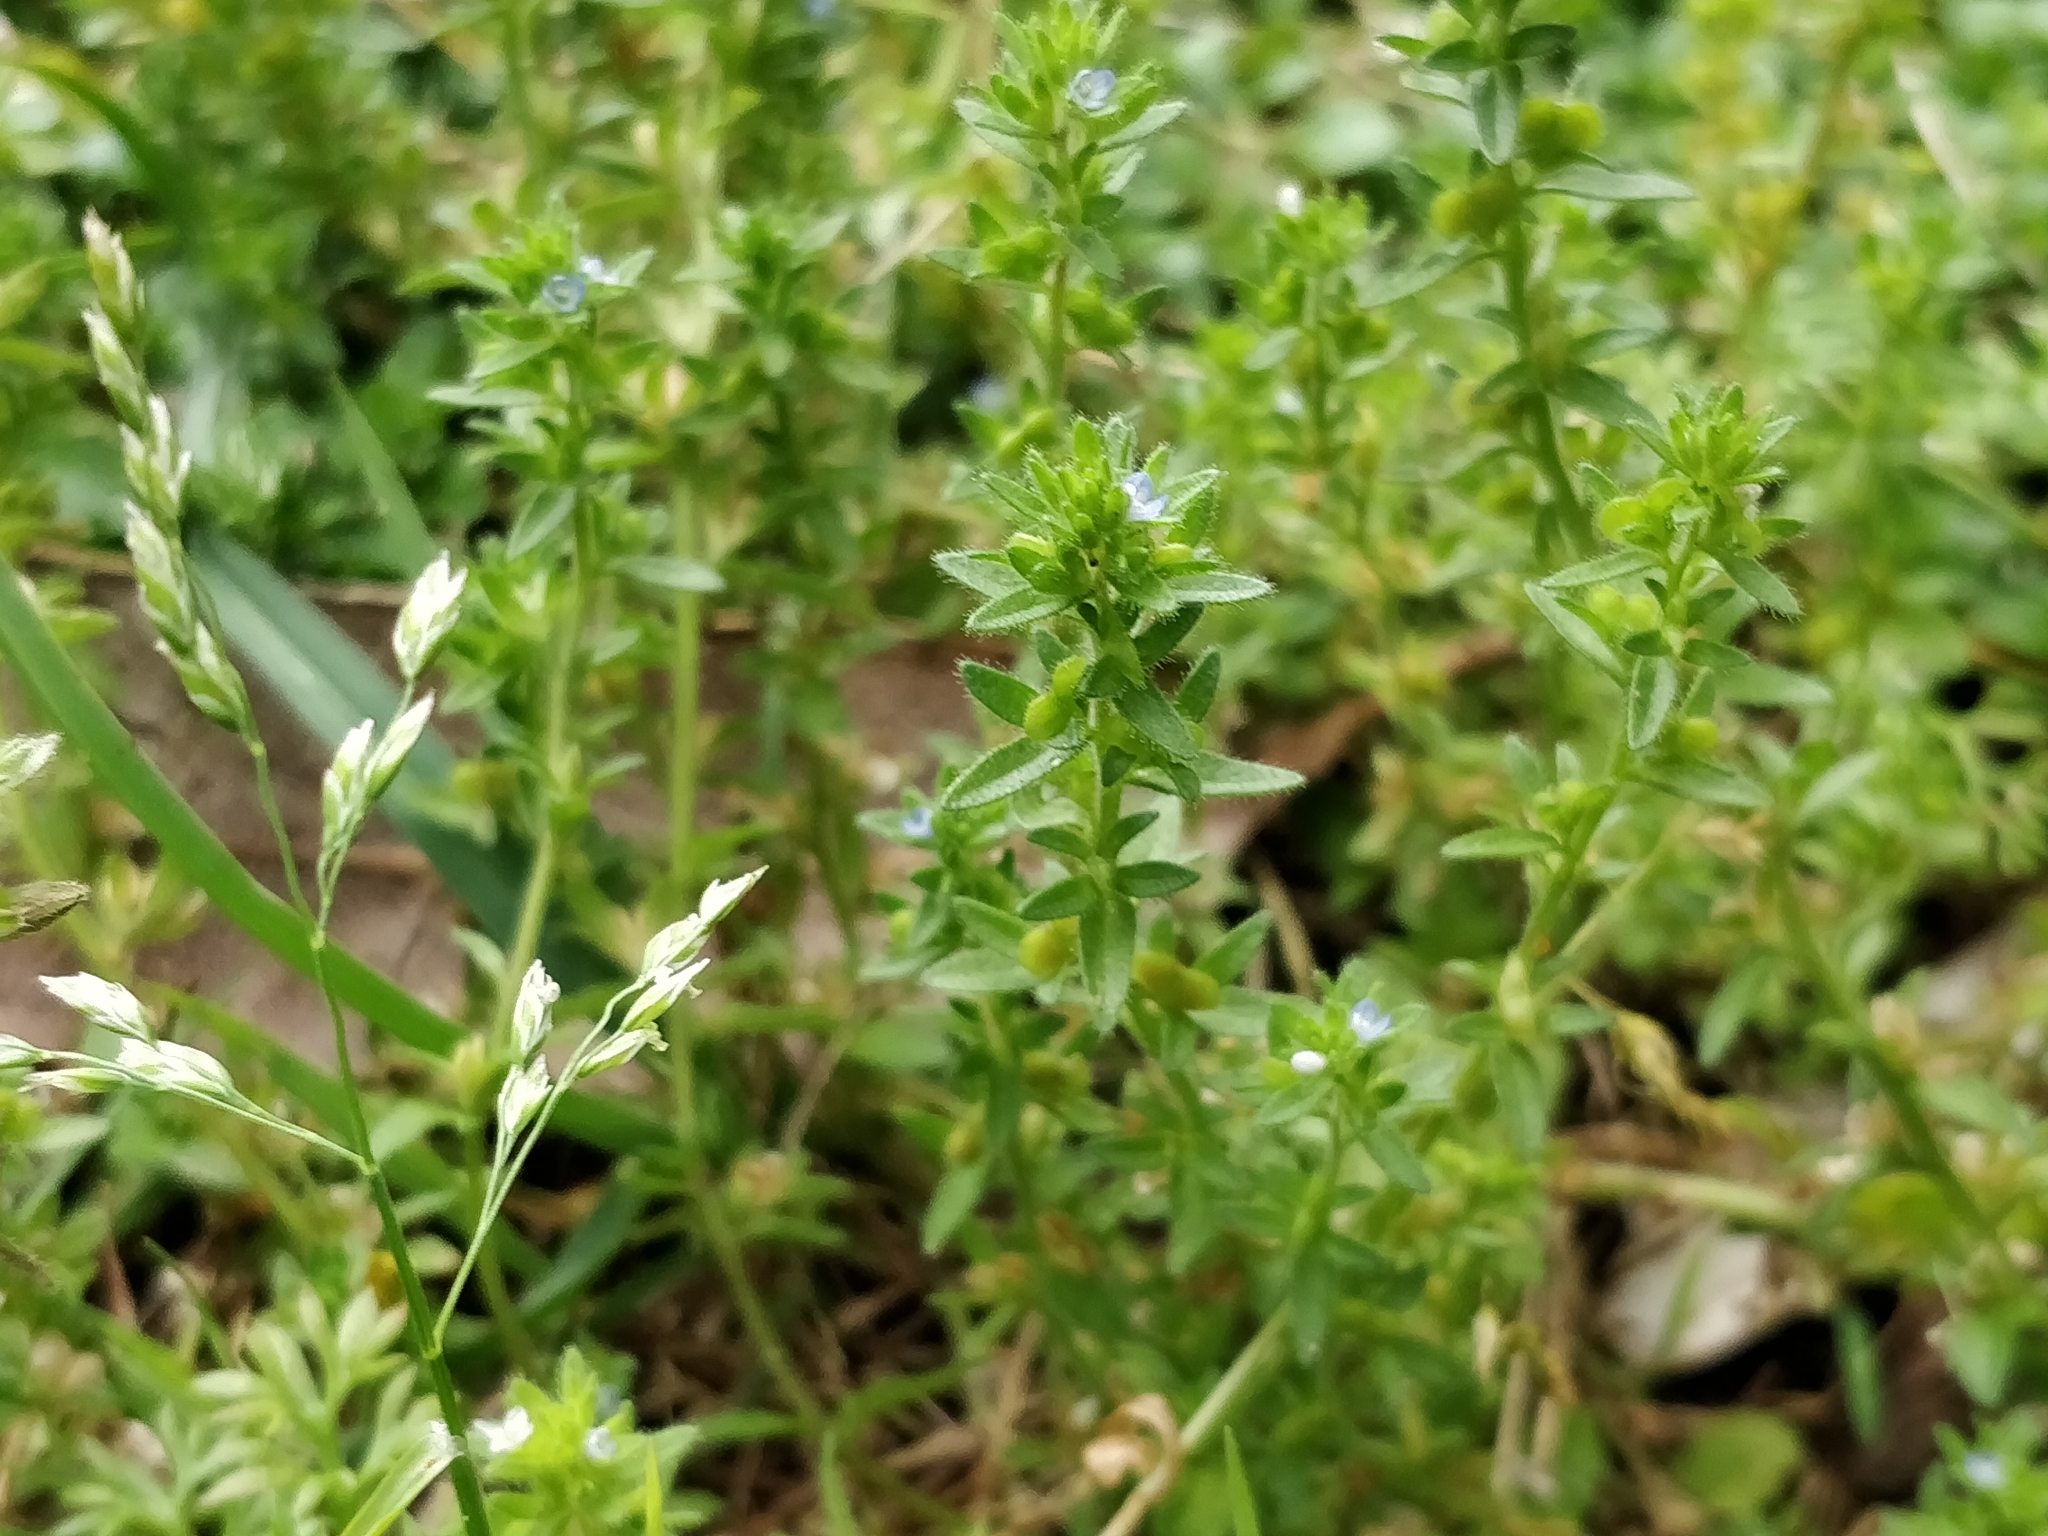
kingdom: Plantae
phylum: Tracheophyta
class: Magnoliopsida
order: Lamiales
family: Plantaginaceae
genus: Veronica
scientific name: Veronica arvensis
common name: Corn speedwell
